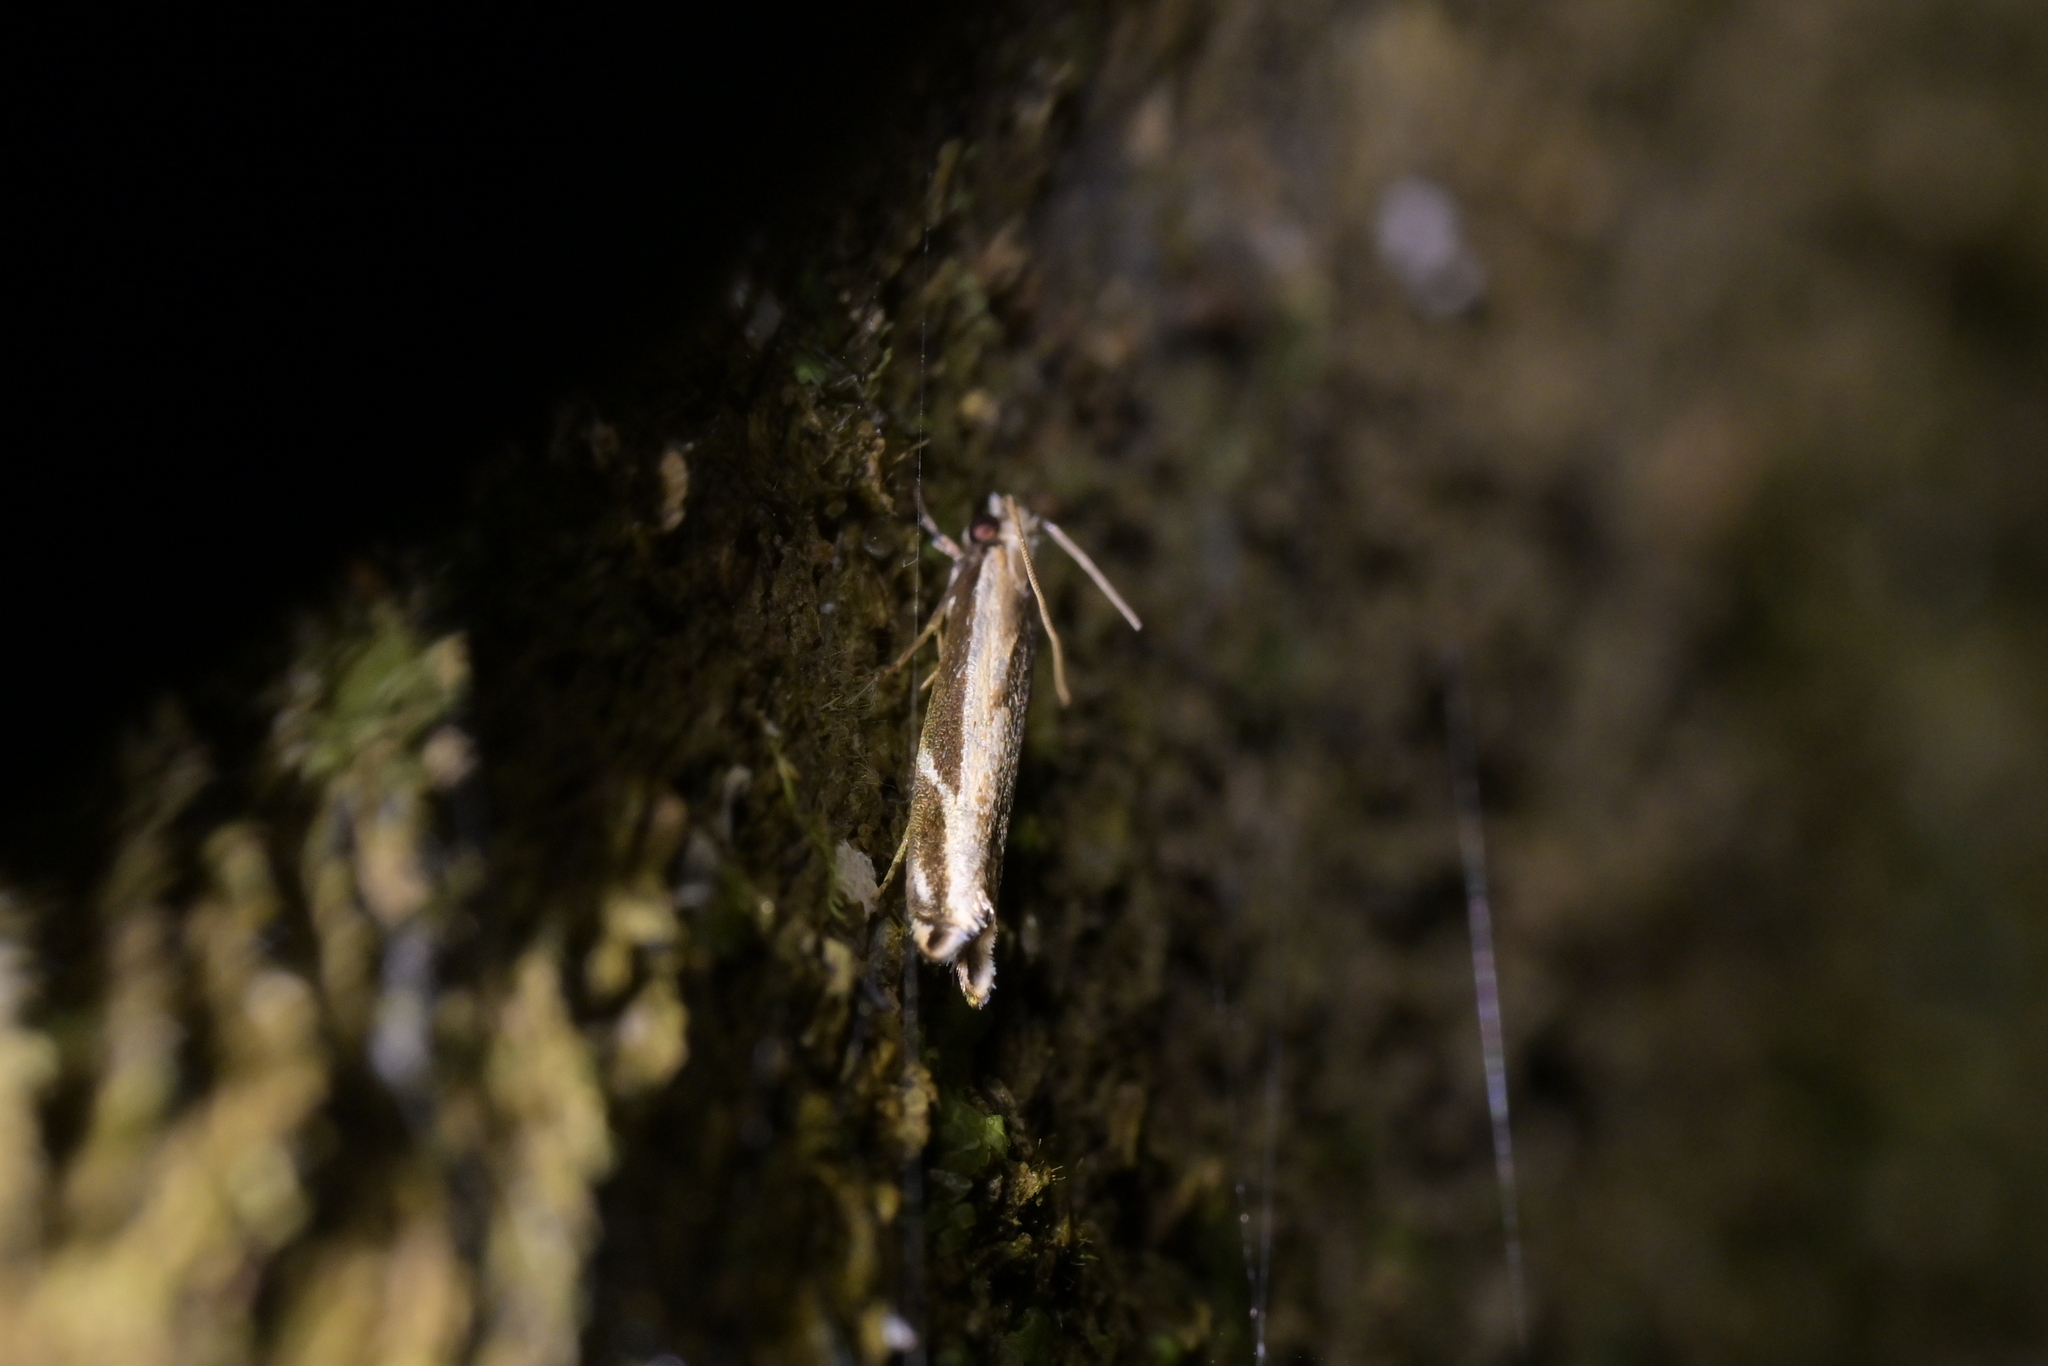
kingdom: Animalia
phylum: Arthropoda
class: Insecta
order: Lepidoptera
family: Tineidae
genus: Erechthias
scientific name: Erechthias terminella
